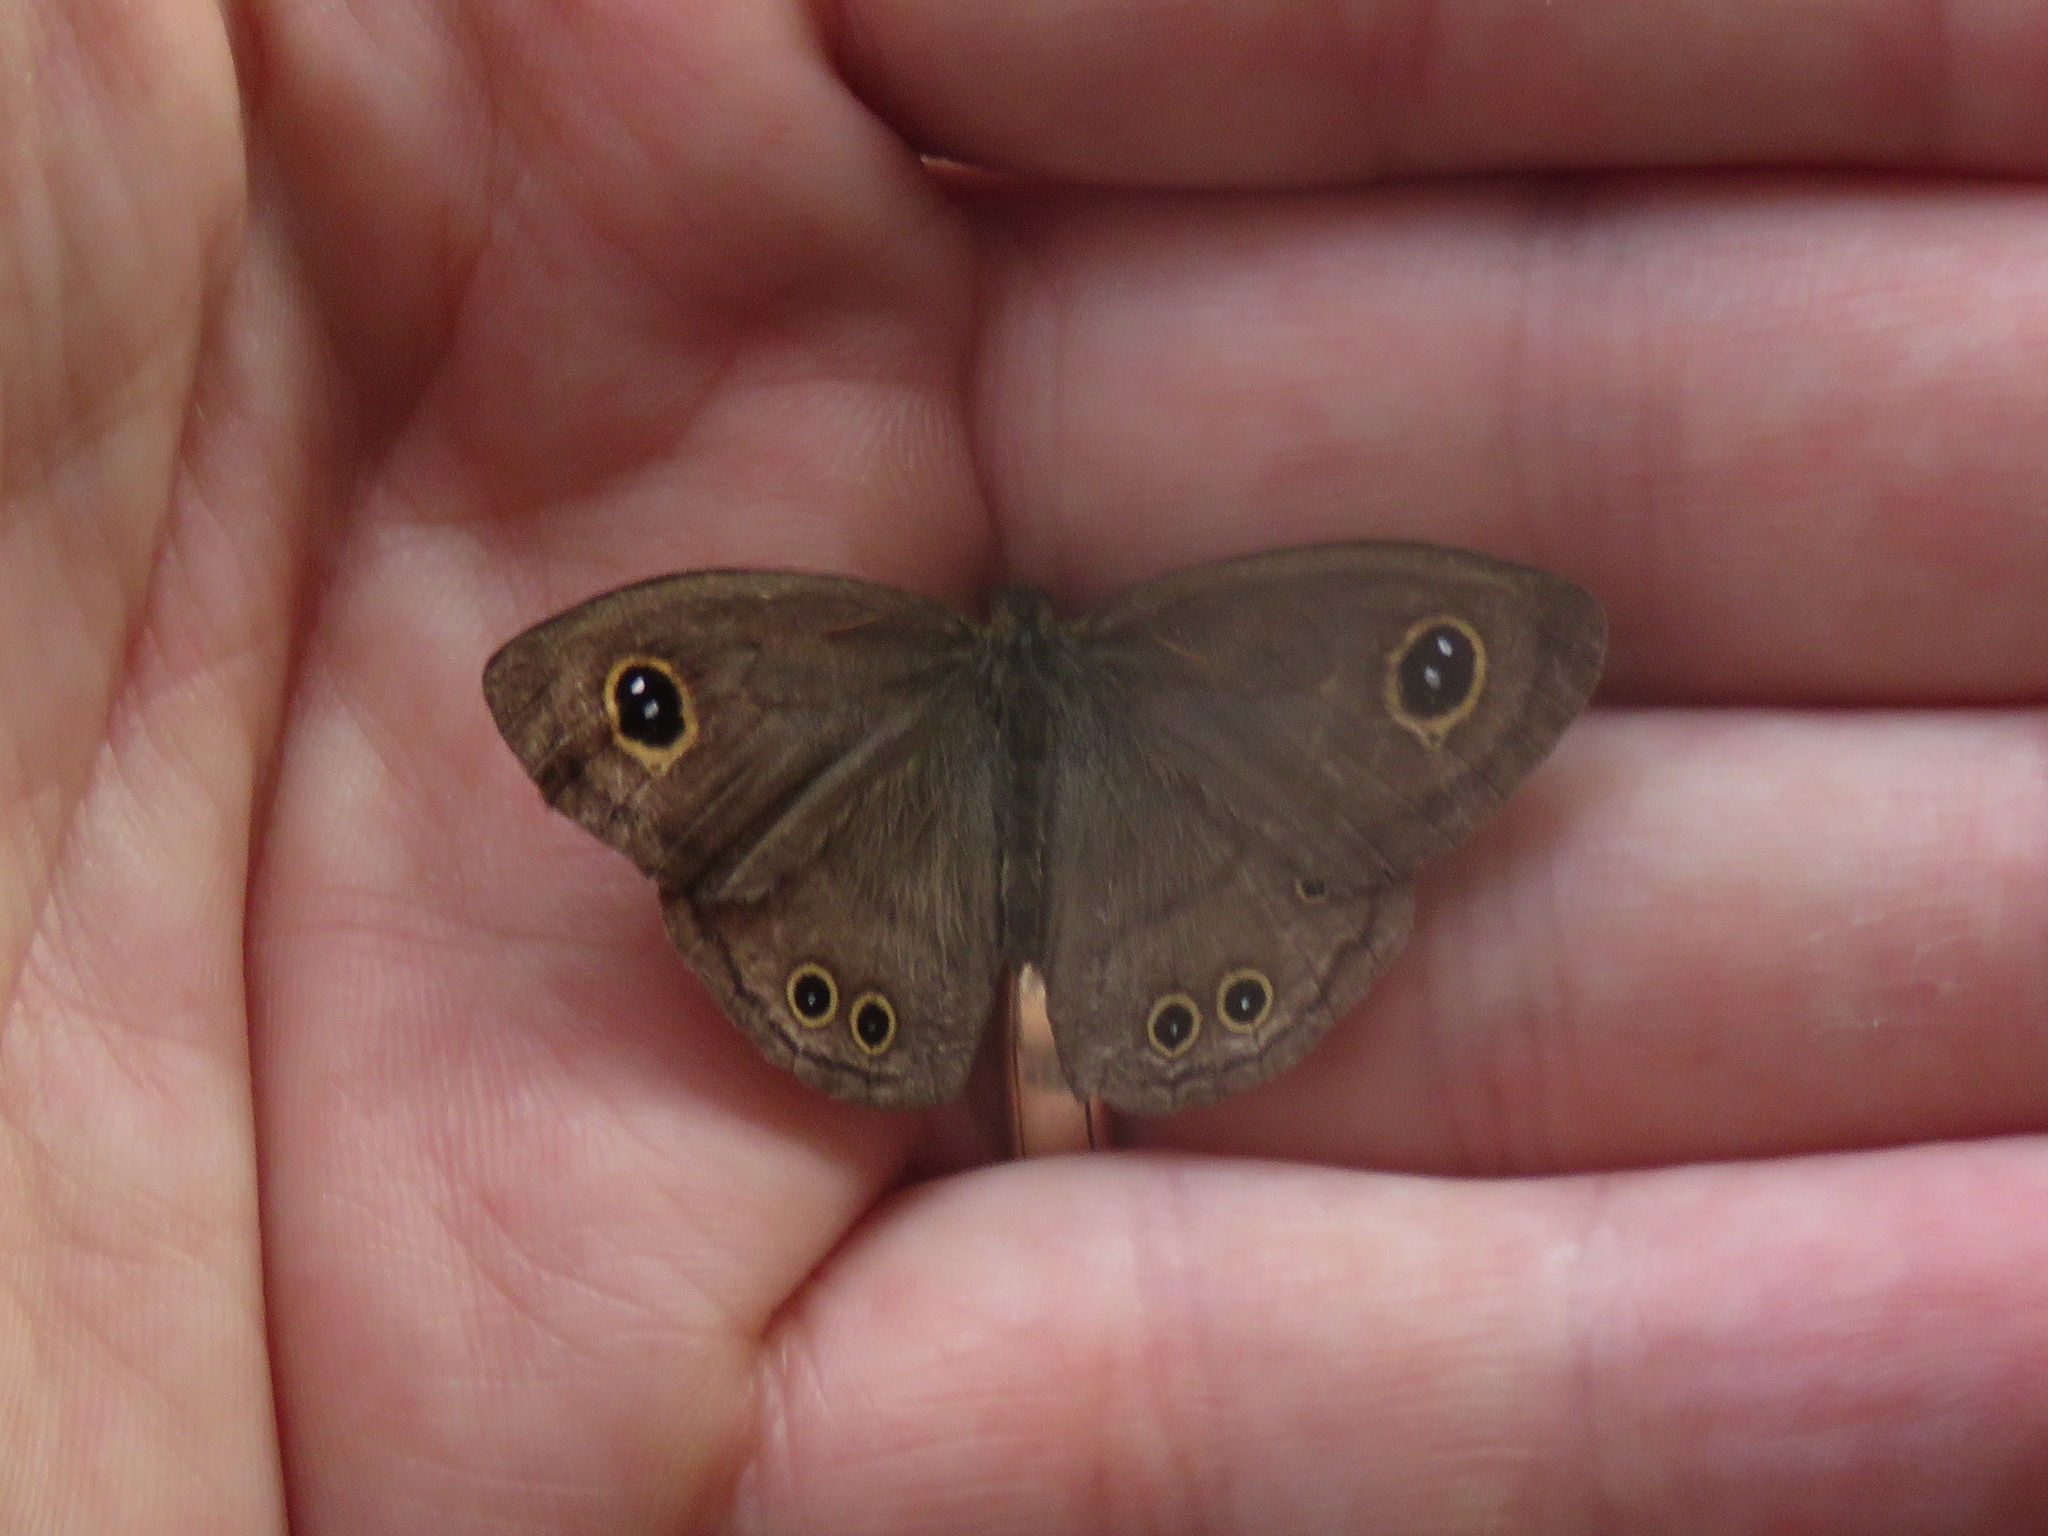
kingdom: Animalia
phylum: Arthropoda
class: Insecta
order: Lepidoptera
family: Nymphalidae
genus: Ypthima
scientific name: Ypthima baldus
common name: Common five-ring
